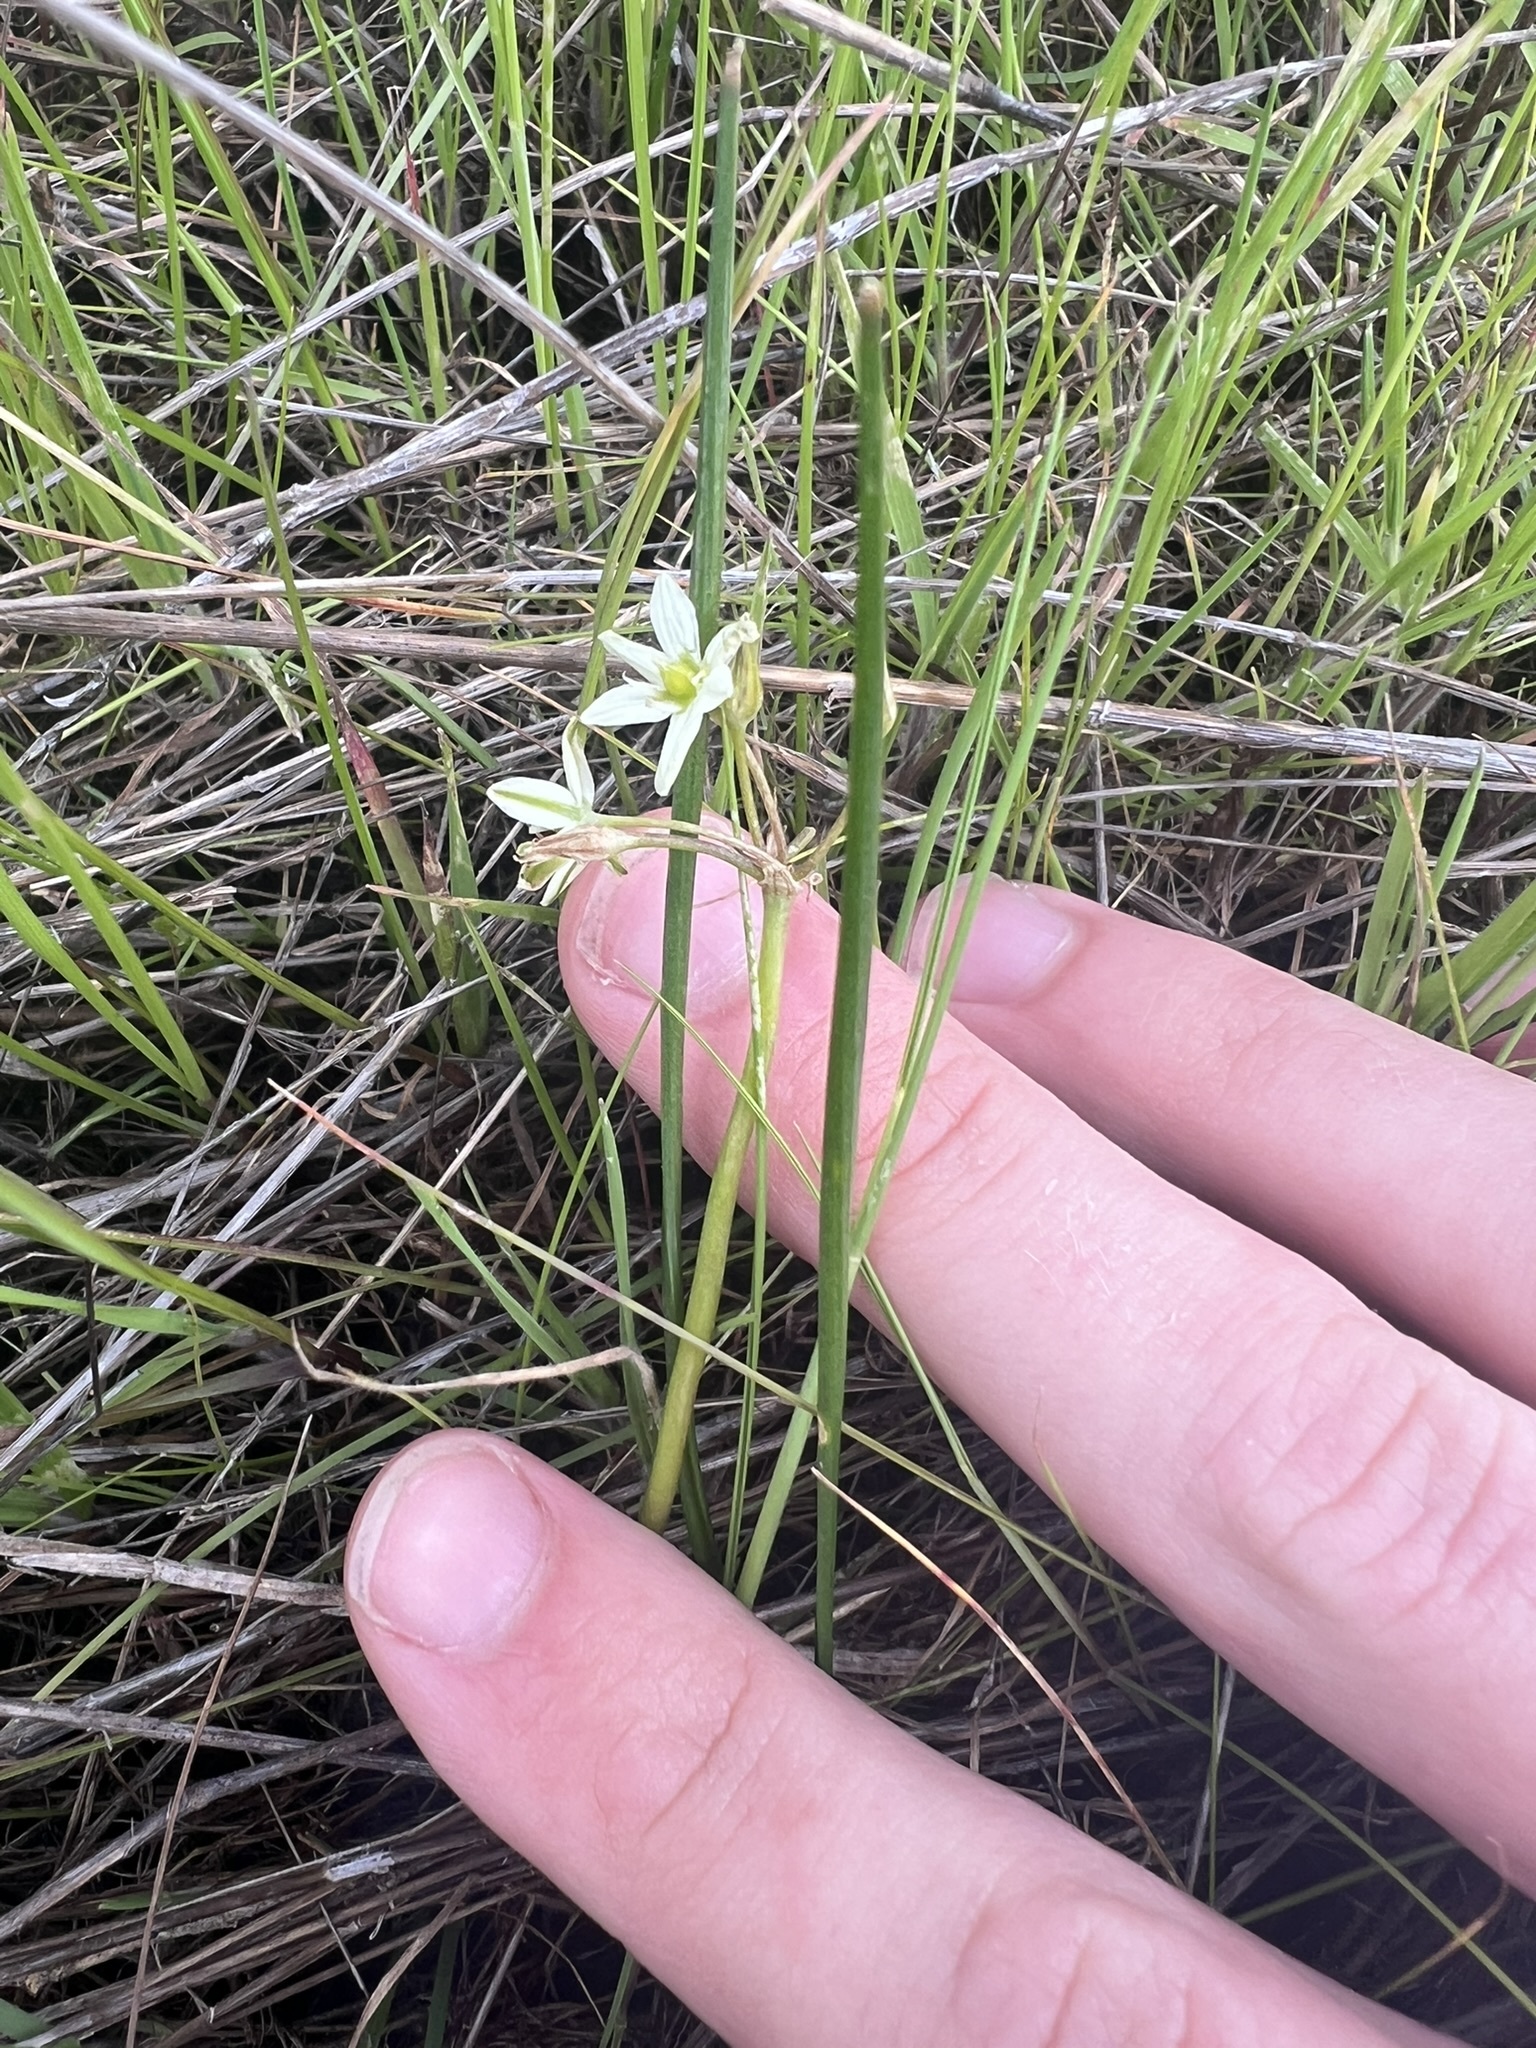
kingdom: Plantae
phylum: Tracheophyta
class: Liliopsida
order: Asparagales
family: Asparagaceae
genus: Muilla
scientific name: Muilla maritima
